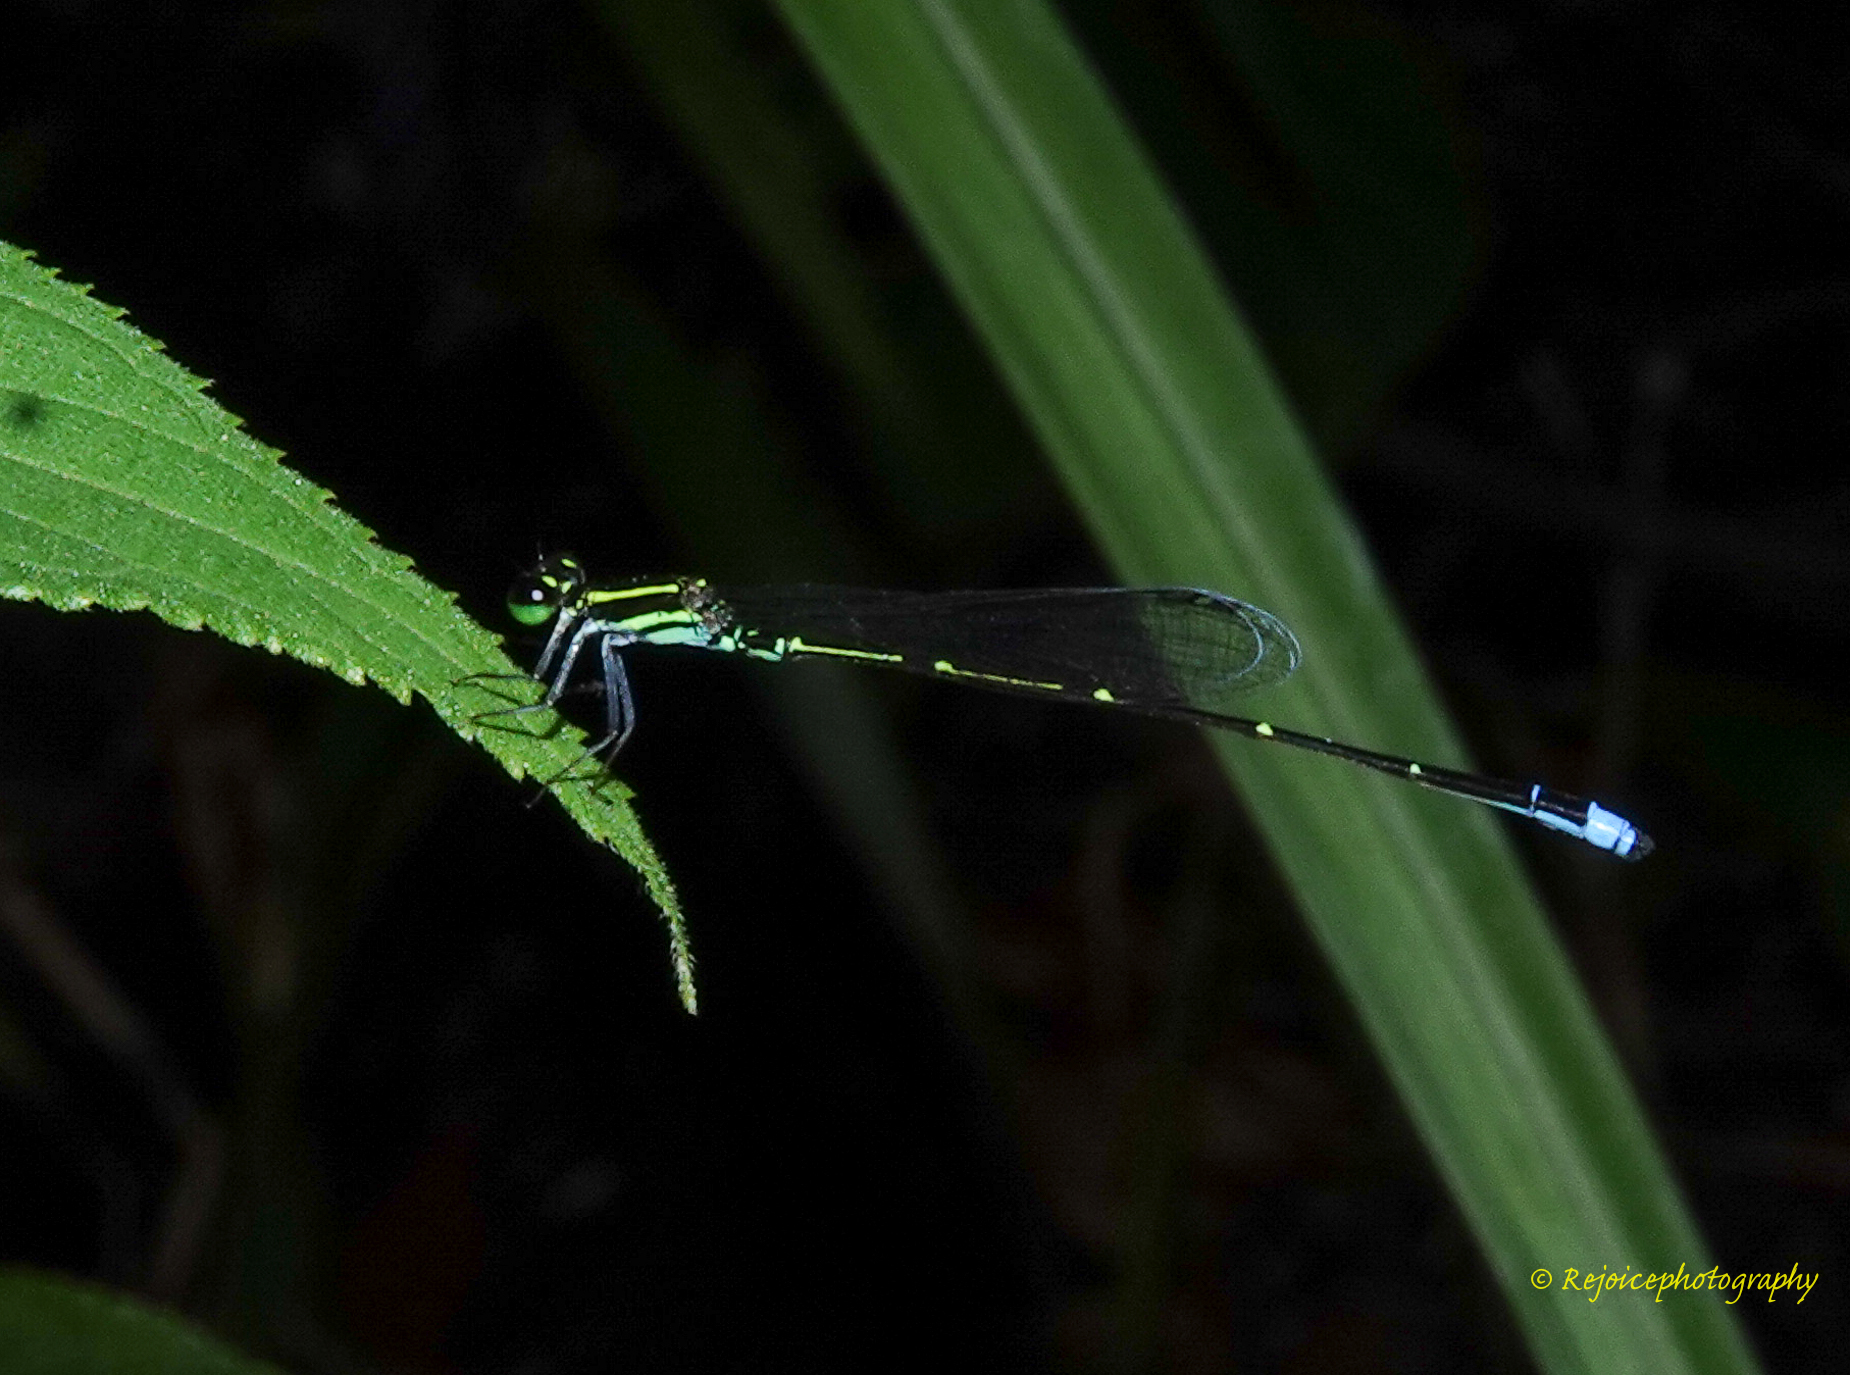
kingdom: Animalia
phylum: Arthropoda
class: Insecta
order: Odonata
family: Coenagrionidae
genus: Mortonagrion
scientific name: Mortonagrion aborense
